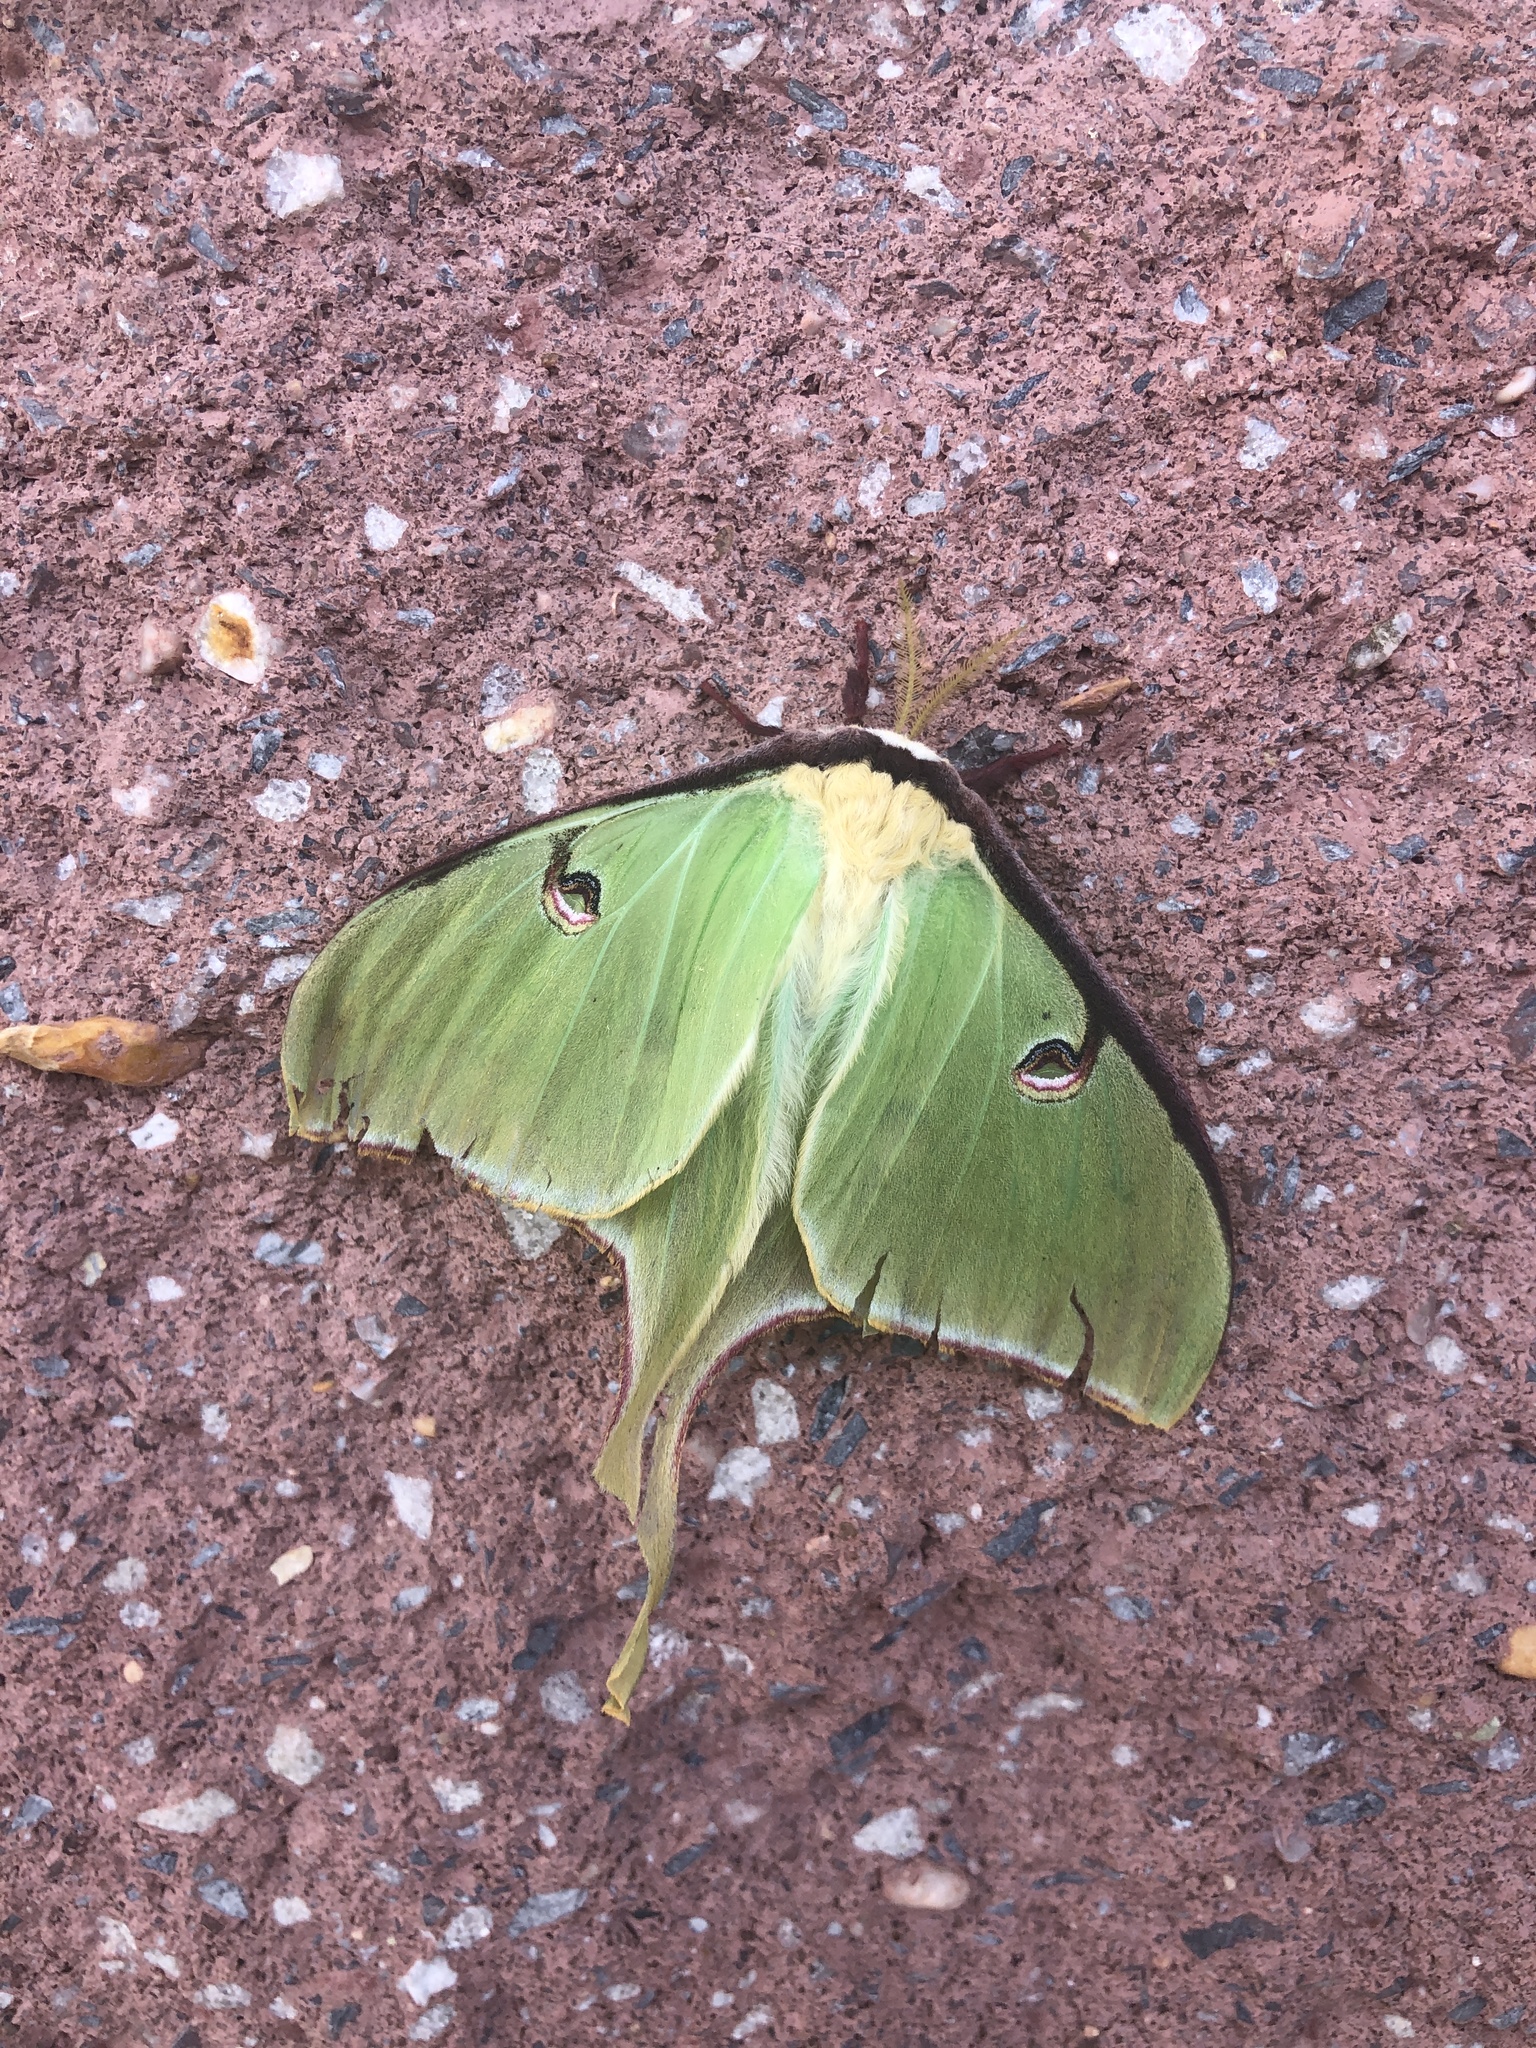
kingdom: Animalia
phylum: Arthropoda
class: Insecta
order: Lepidoptera
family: Saturniidae
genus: Actias
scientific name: Actias luna
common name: Luna moth
